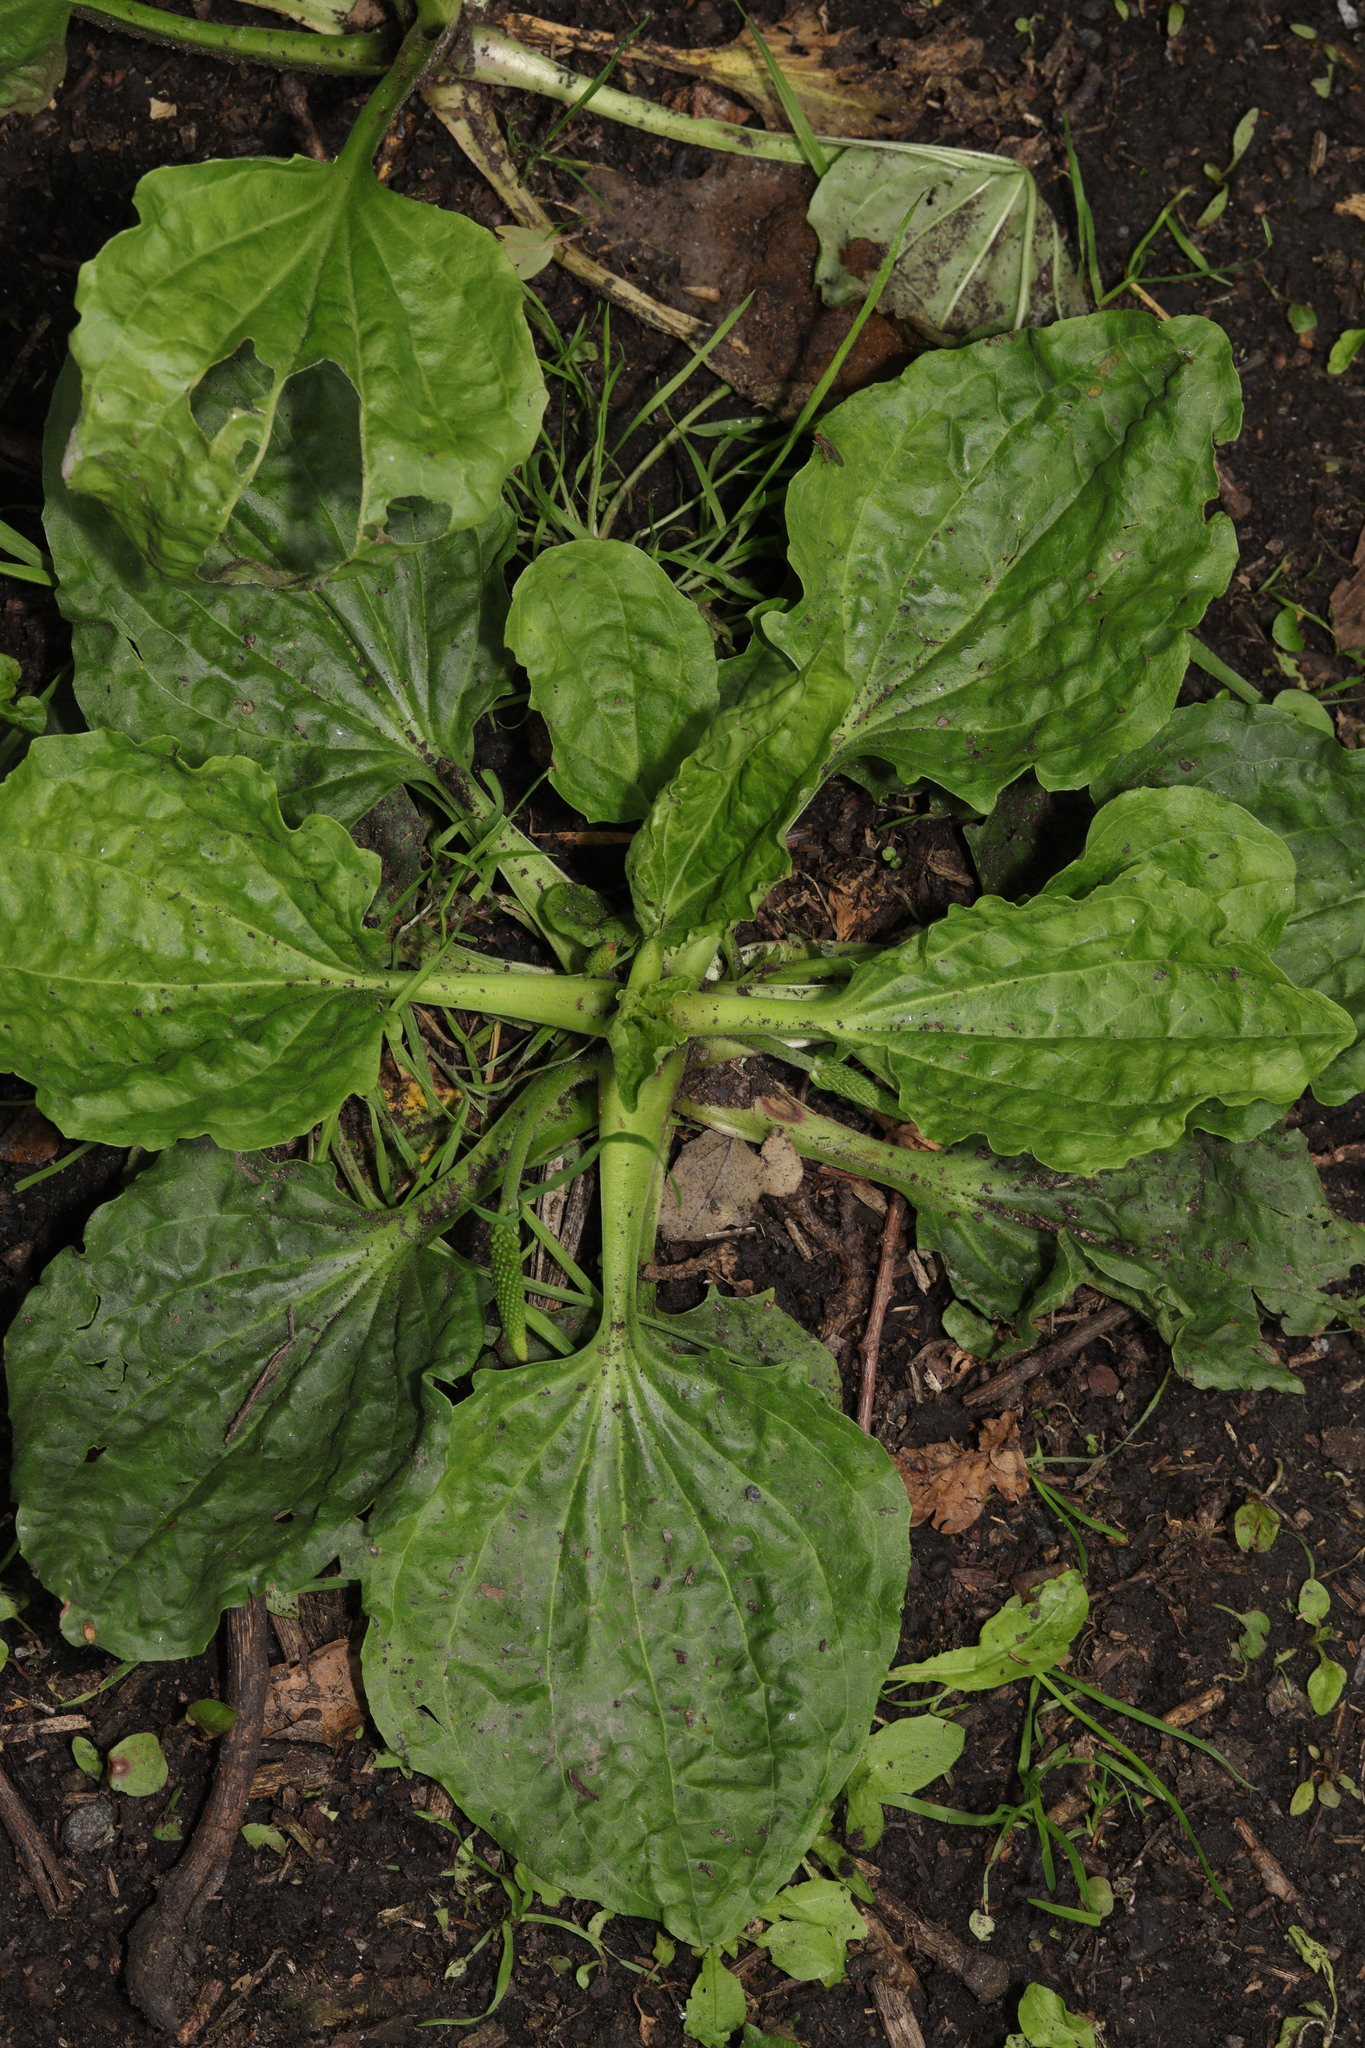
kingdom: Plantae
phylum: Tracheophyta
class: Magnoliopsida
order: Lamiales
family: Plantaginaceae
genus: Plantago
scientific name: Plantago major
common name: Common plantain
